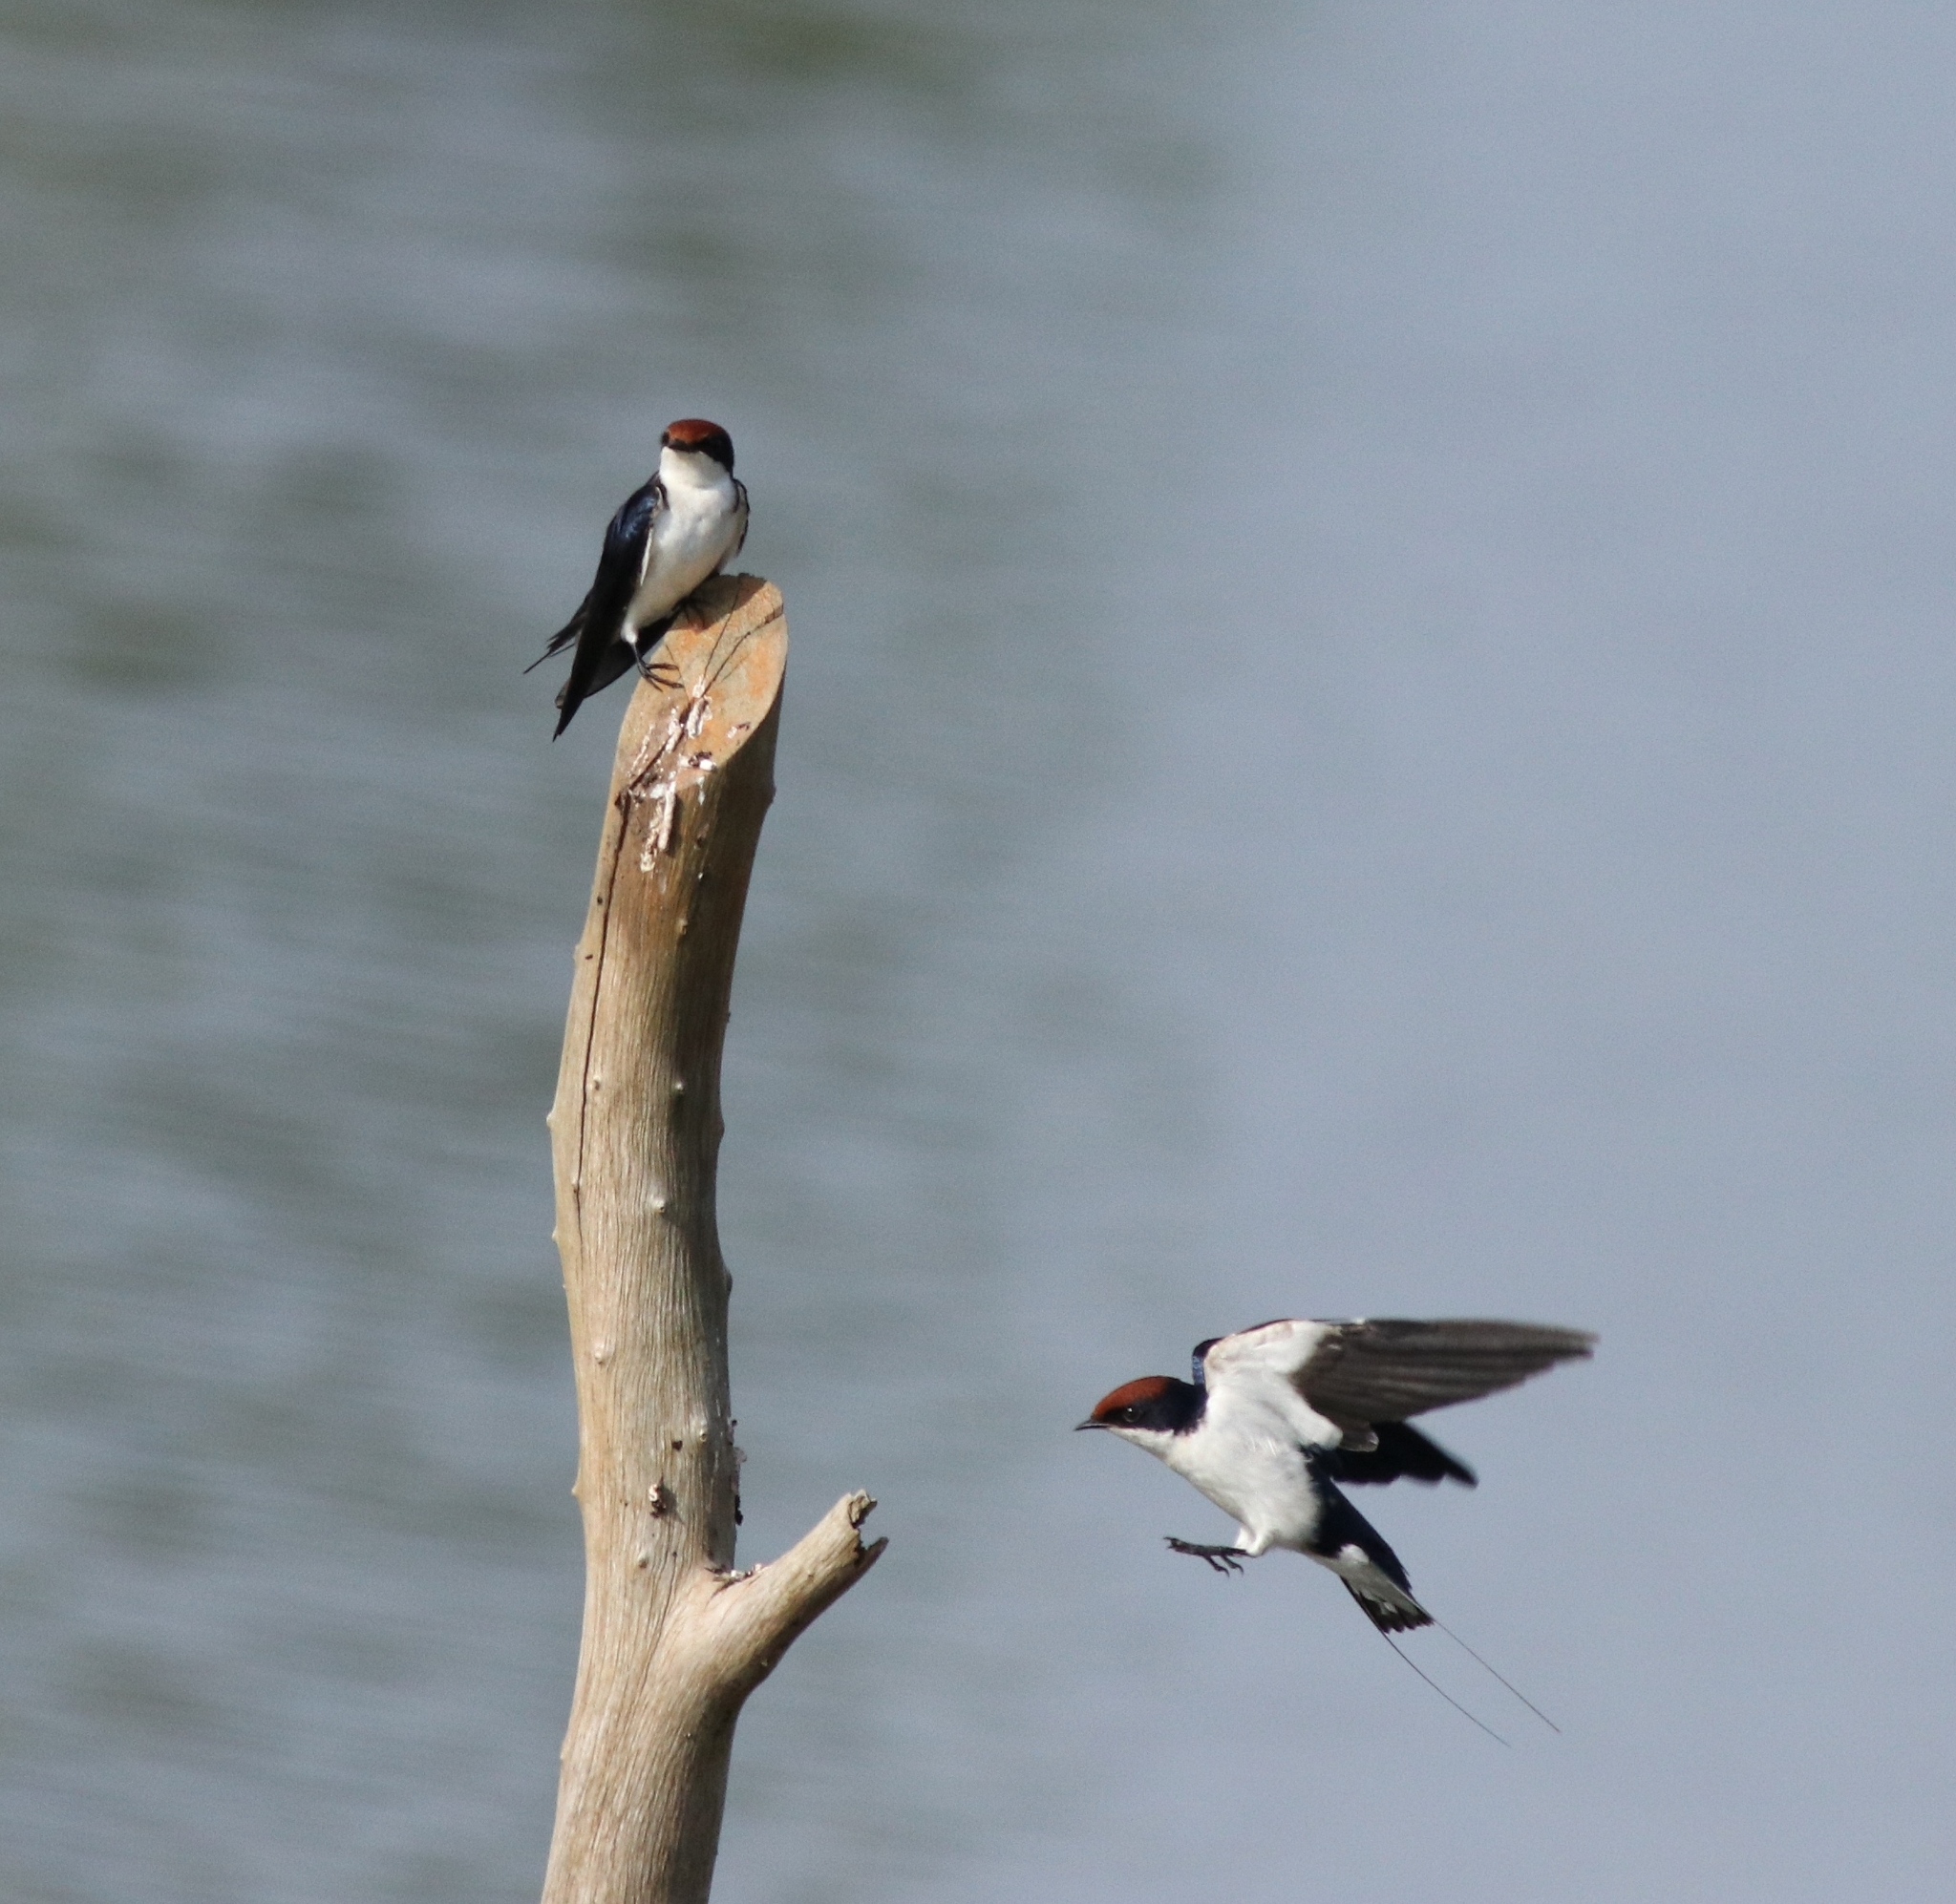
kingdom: Animalia
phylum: Chordata
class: Aves
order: Passeriformes
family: Hirundinidae
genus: Hirundo
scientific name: Hirundo smithii
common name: Wire-tailed swallow
